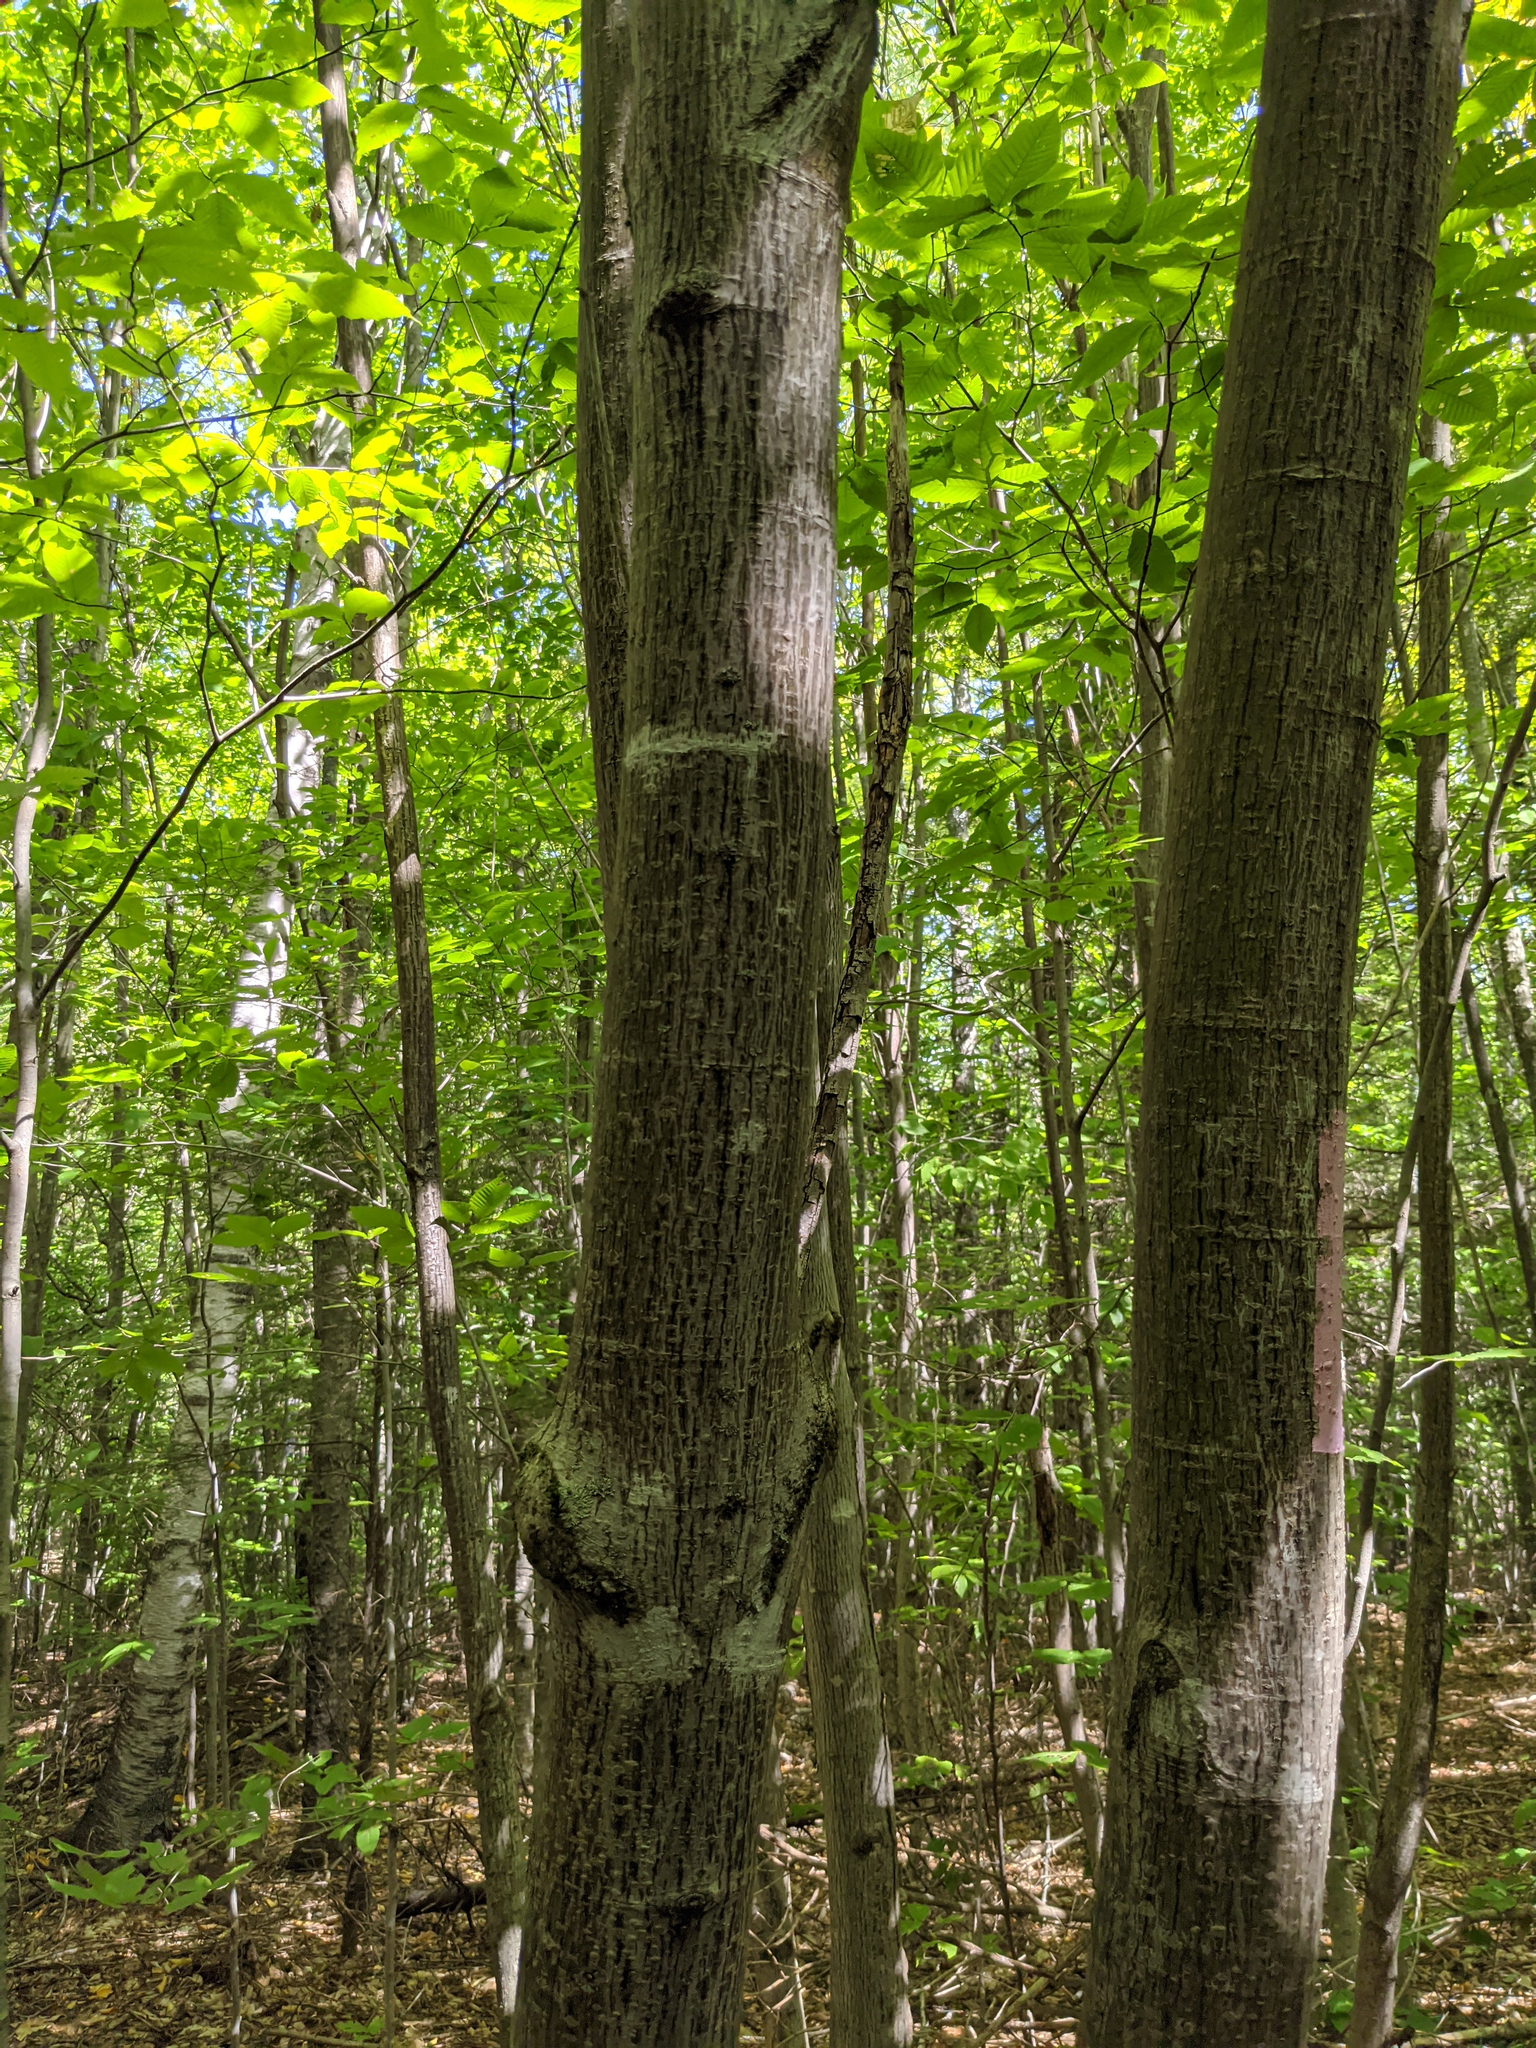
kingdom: Plantae
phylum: Tracheophyta
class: Magnoliopsida
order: Sapindales
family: Sapindaceae
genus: Acer
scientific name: Acer pensylvanicum
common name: Moosewood
